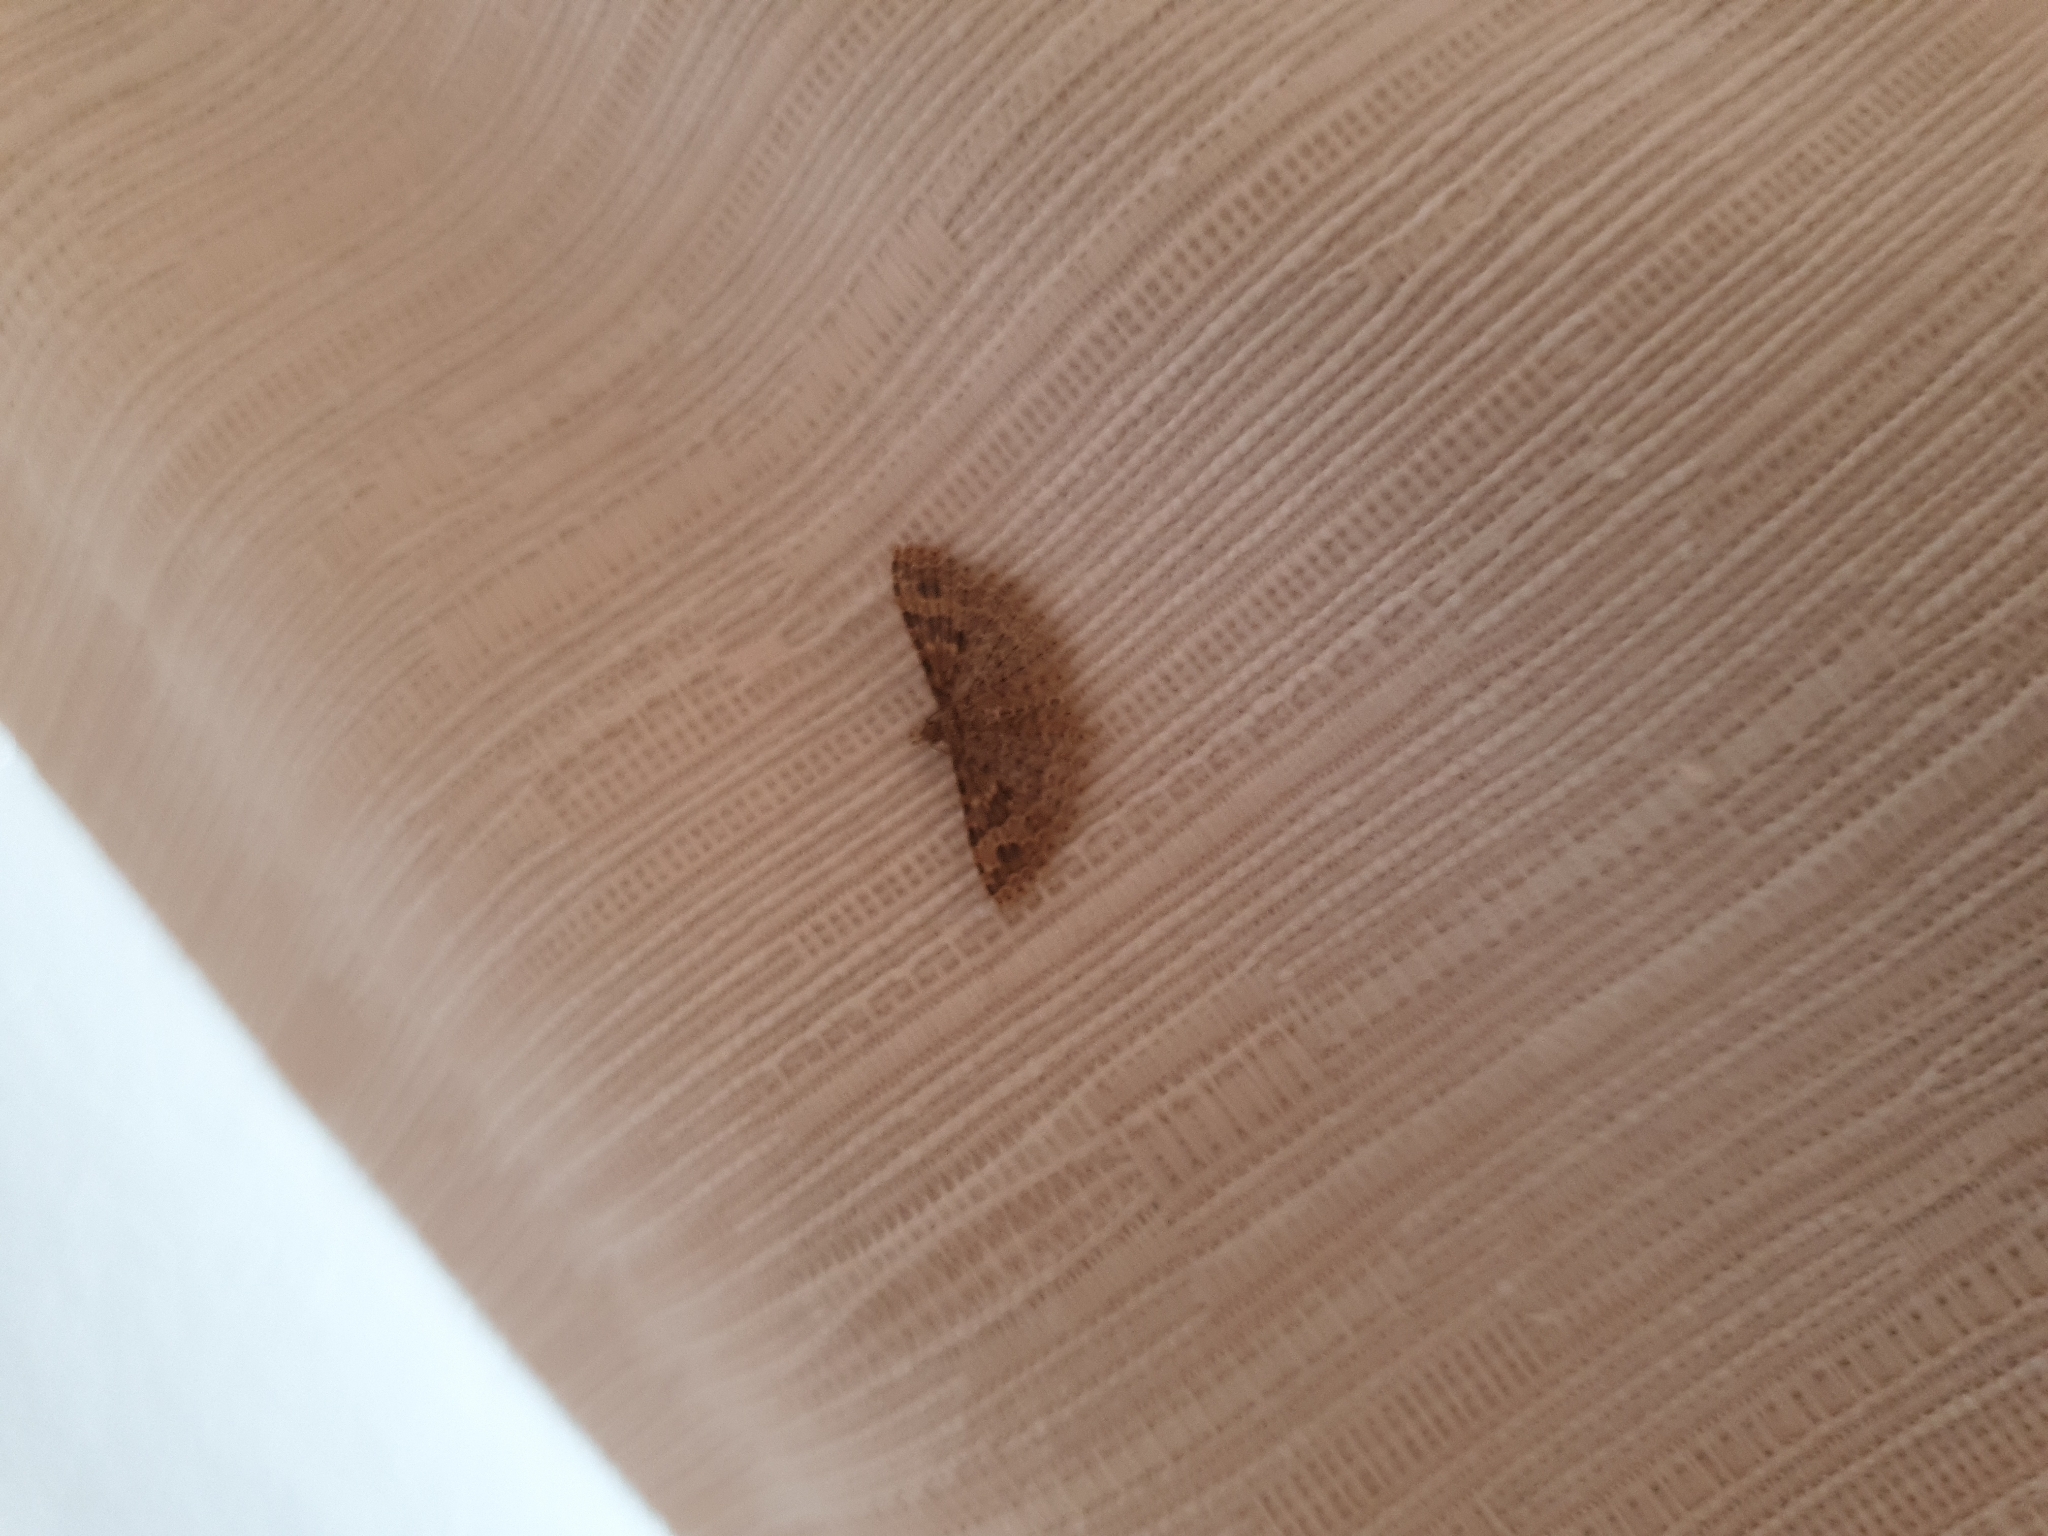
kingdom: Animalia
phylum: Arthropoda
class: Insecta
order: Lepidoptera
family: Alucitidae
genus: Alucita
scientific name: Alucita hexadactyla
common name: Twenty-plume moth
